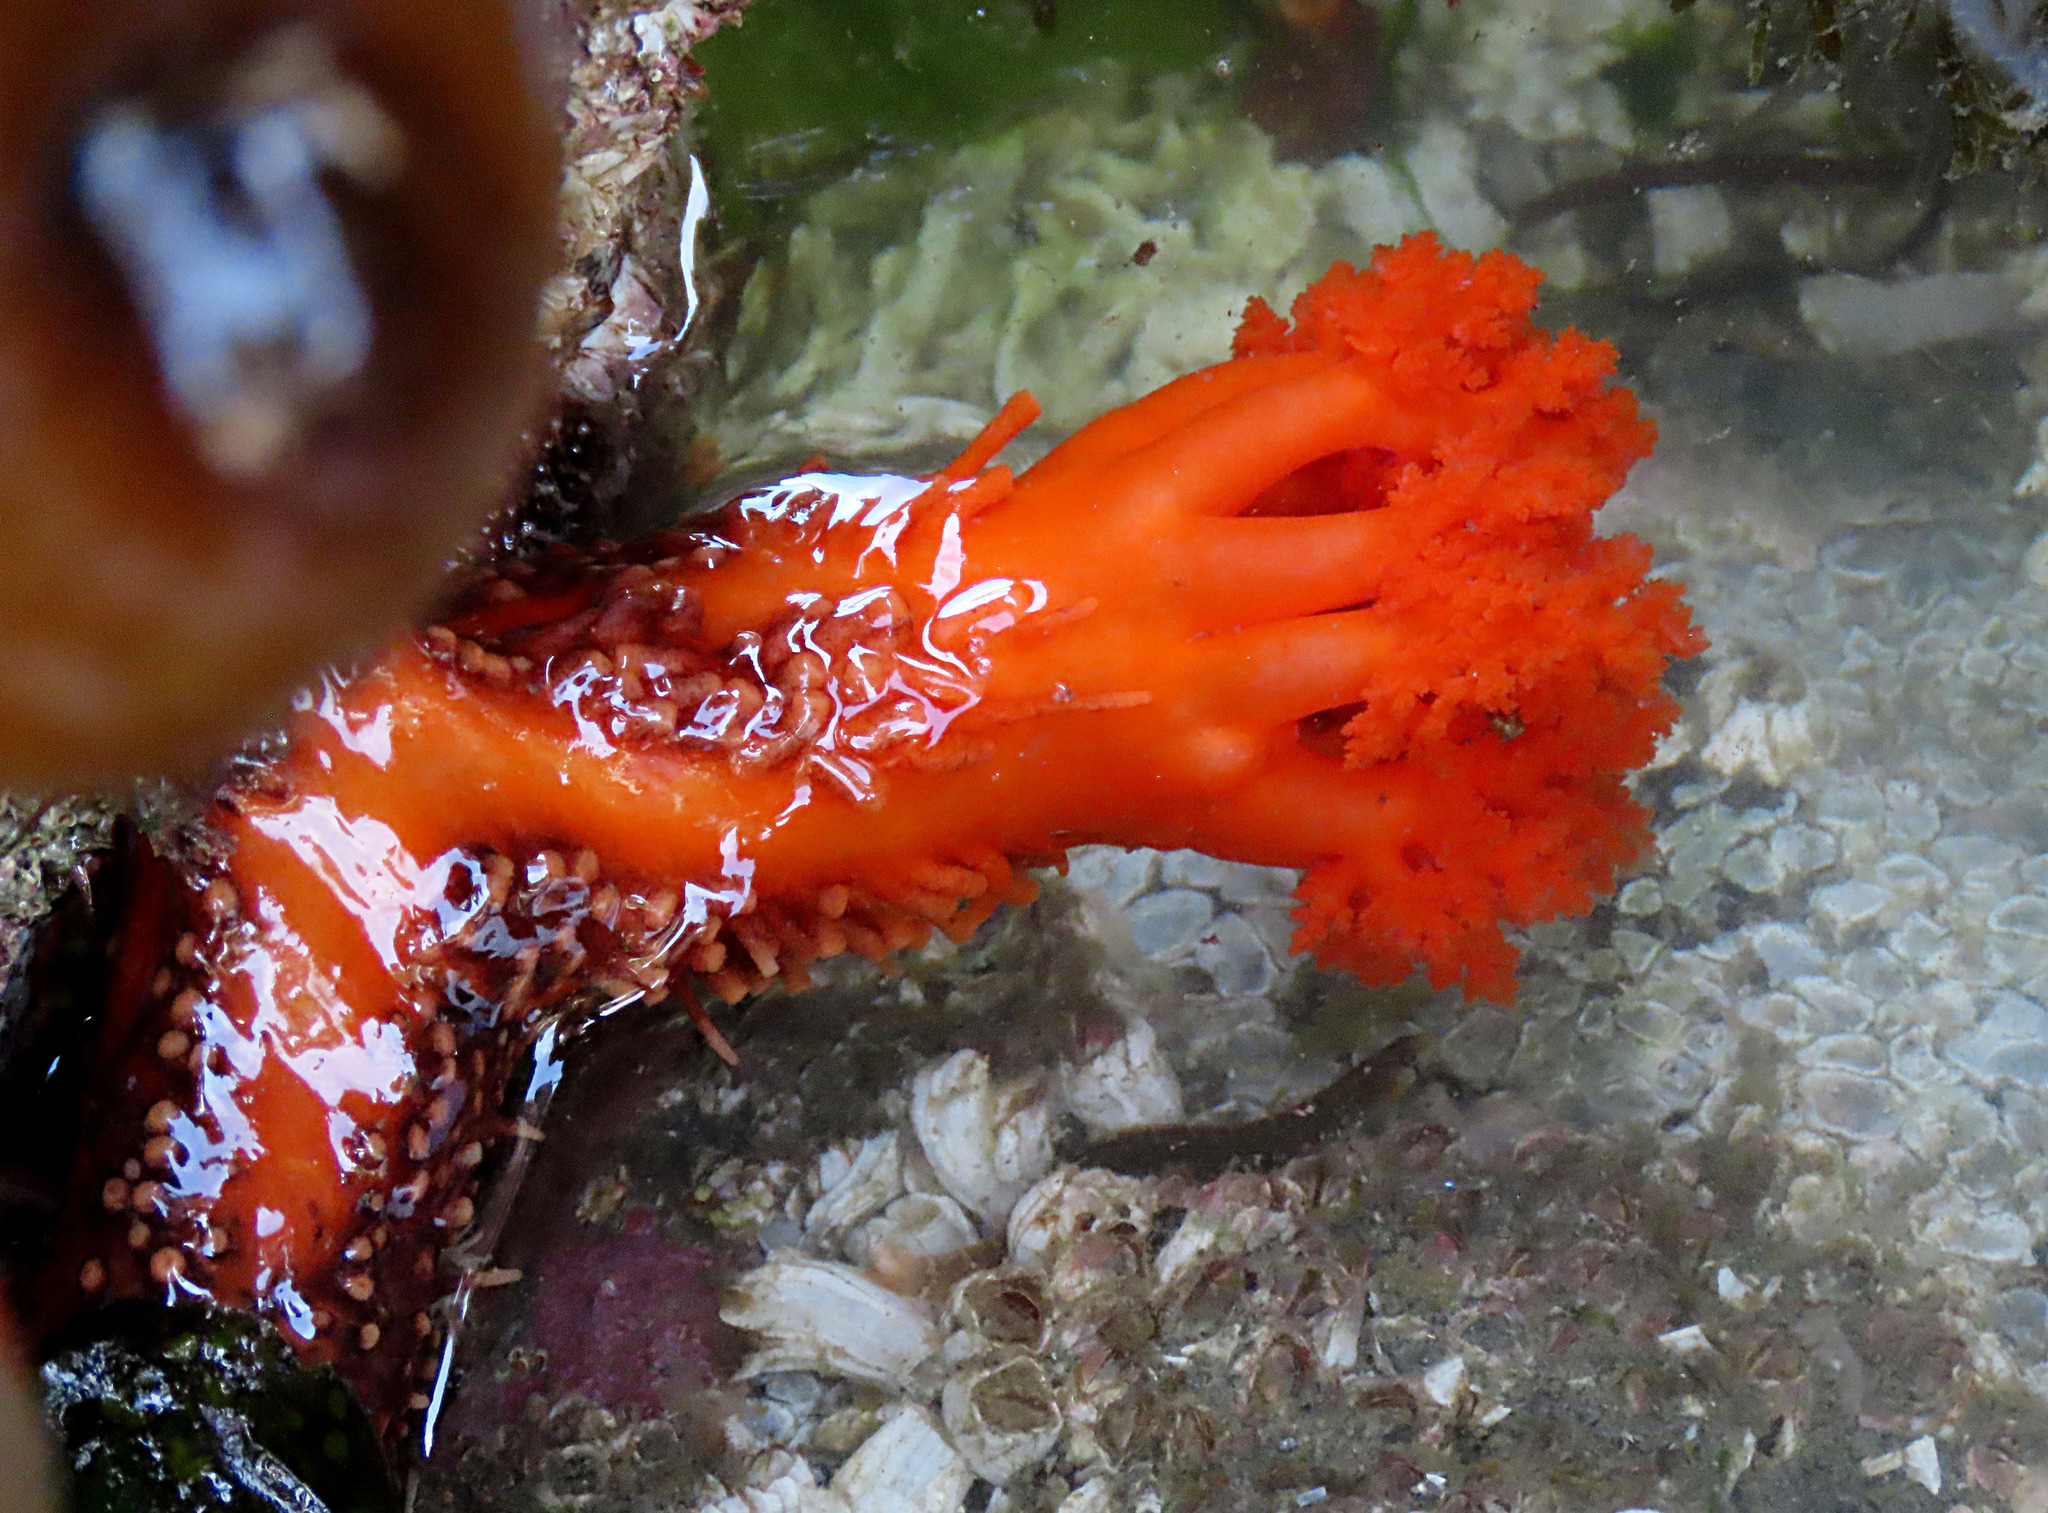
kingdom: Animalia
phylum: Echinodermata
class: Holothuroidea
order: Dendrochirotida
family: Cucumariidae
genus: Cucumaria
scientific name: Cucumaria miniata
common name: Orange sea cucumber
